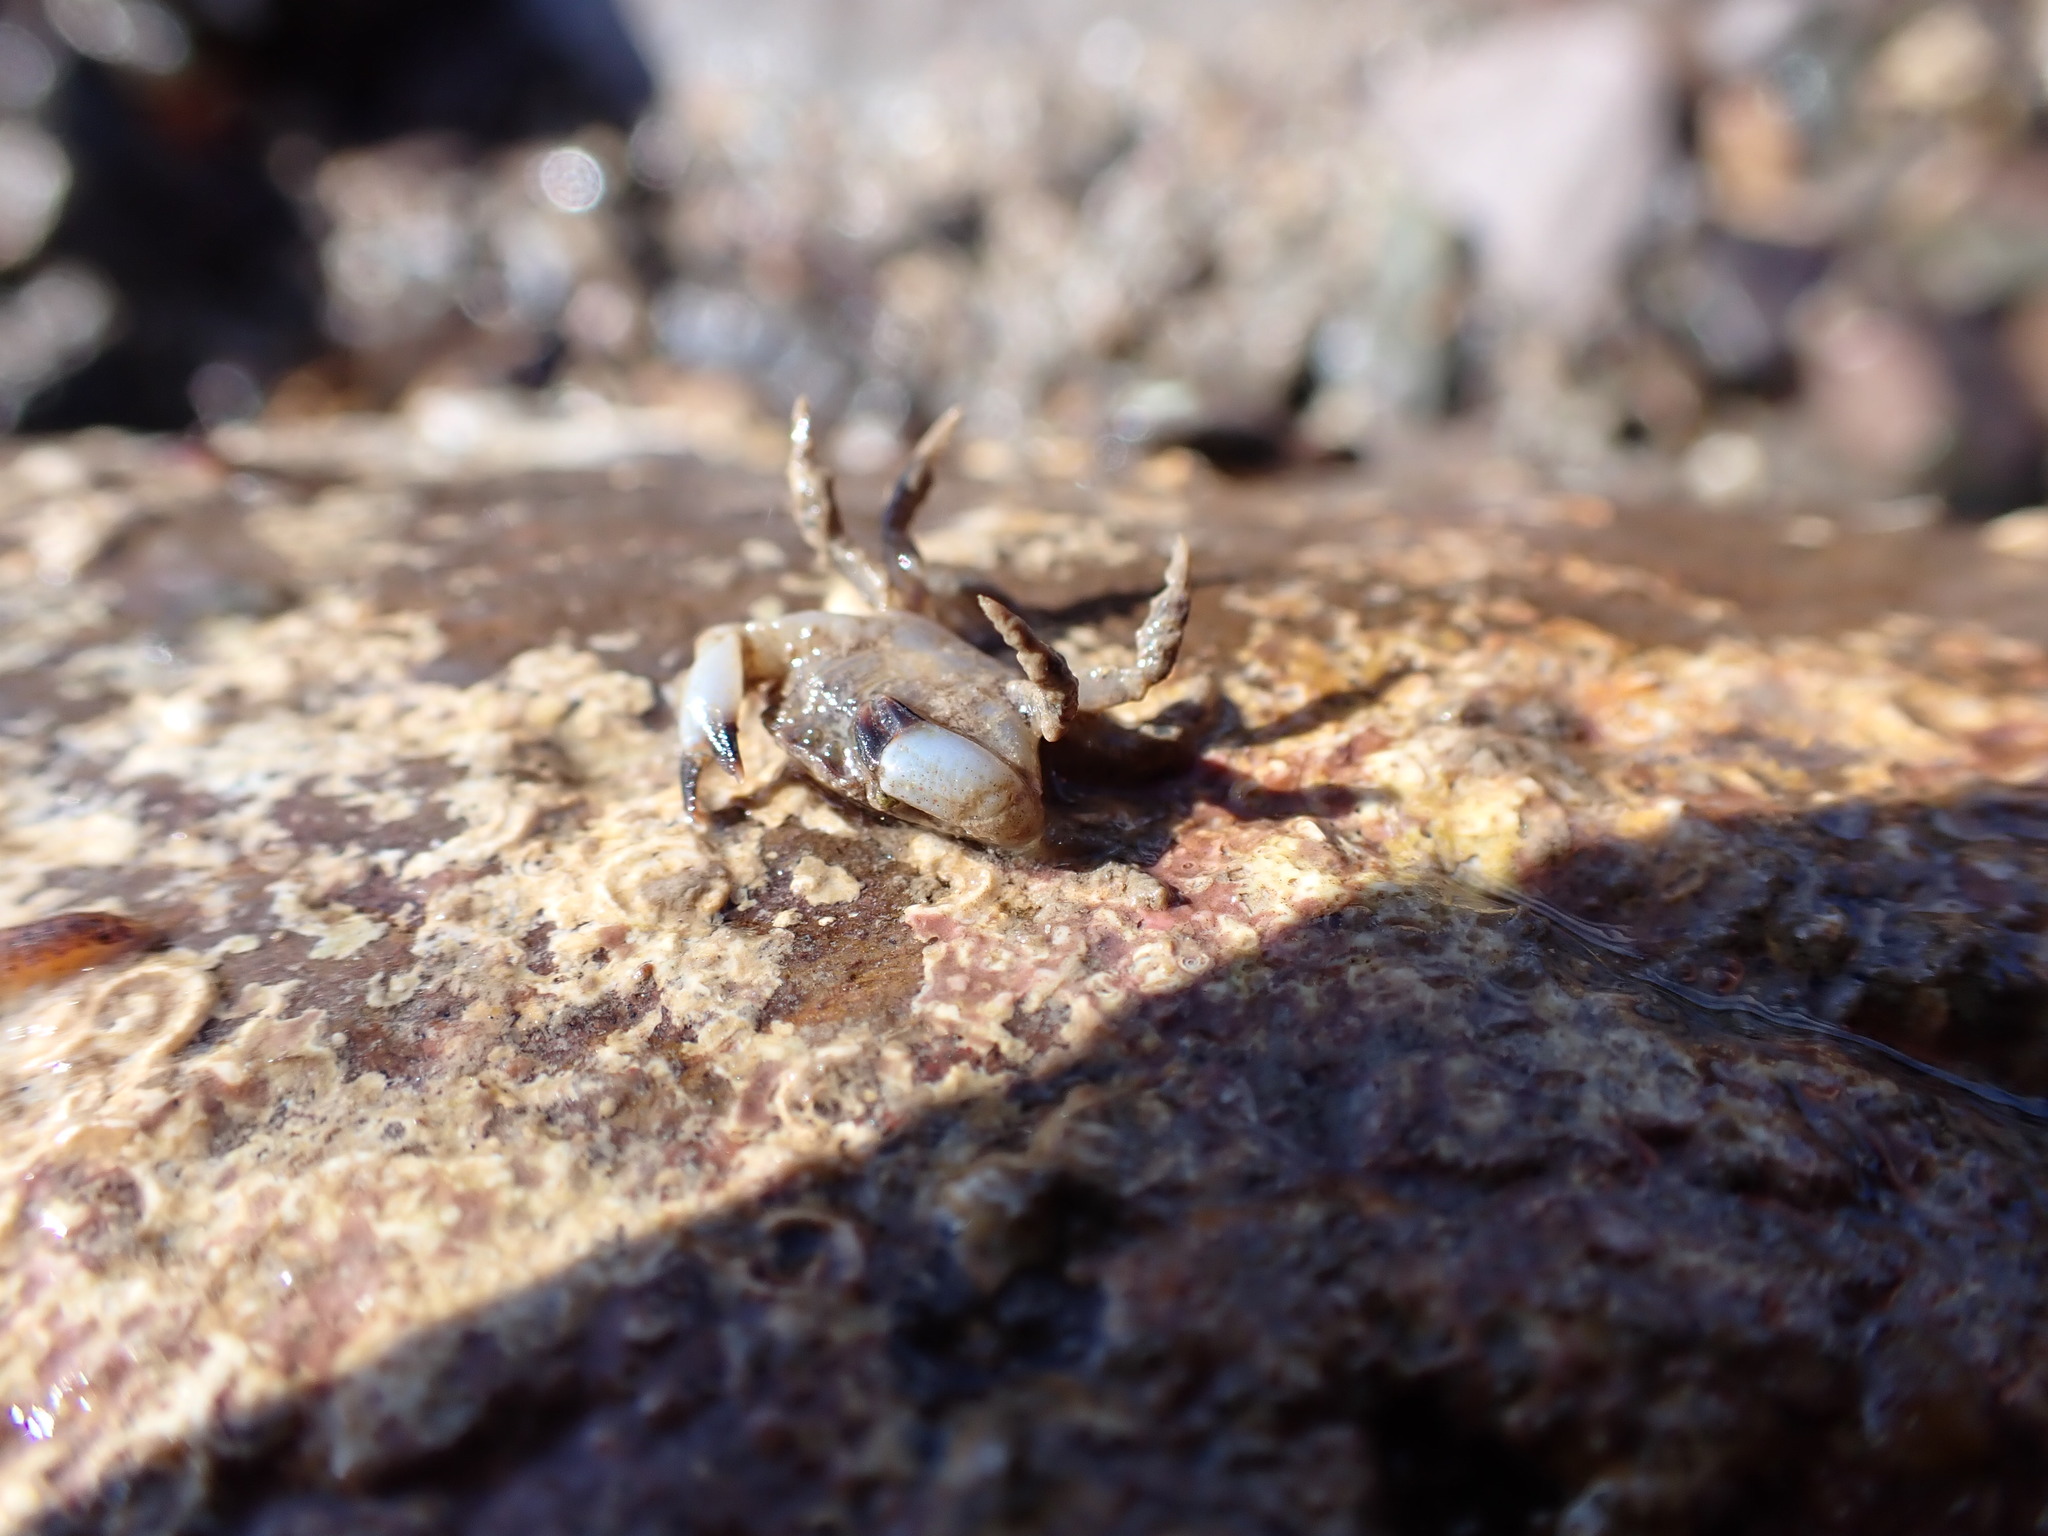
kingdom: Animalia
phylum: Arthropoda
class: Malacostraca
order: Decapoda
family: Xanthidae
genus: Xantho
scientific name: Xantho pilipes
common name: Risso's crab
